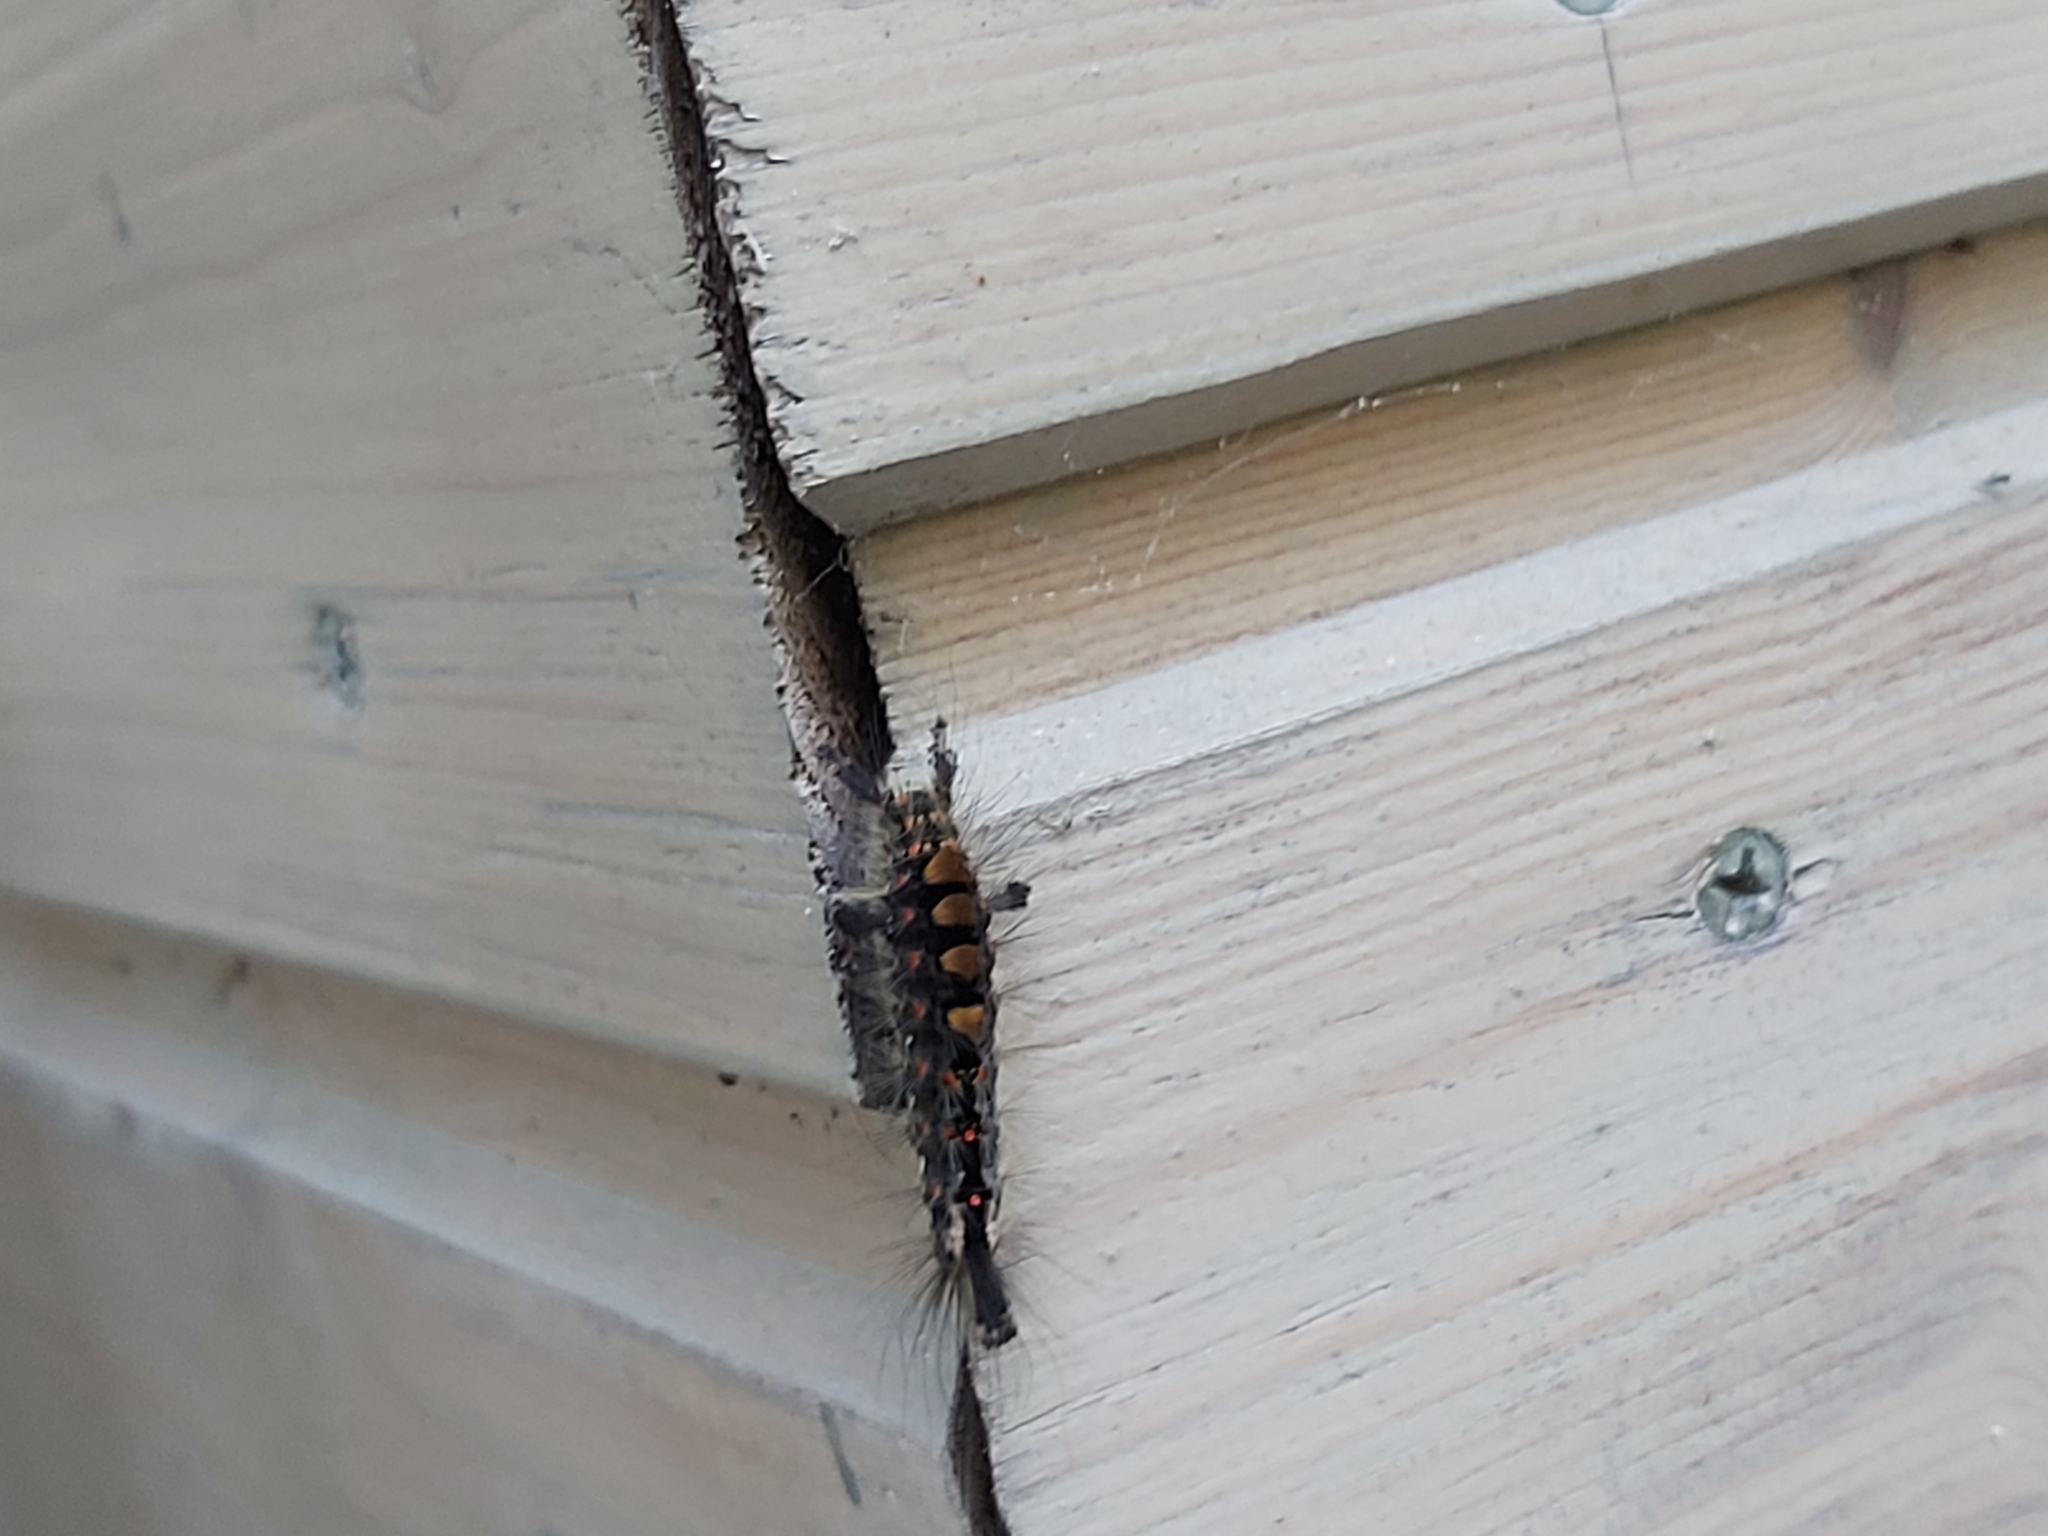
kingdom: Animalia
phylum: Arthropoda
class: Insecta
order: Lepidoptera
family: Erebidae
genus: Orgyia
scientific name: Orgyia antiqua
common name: Vapourer
